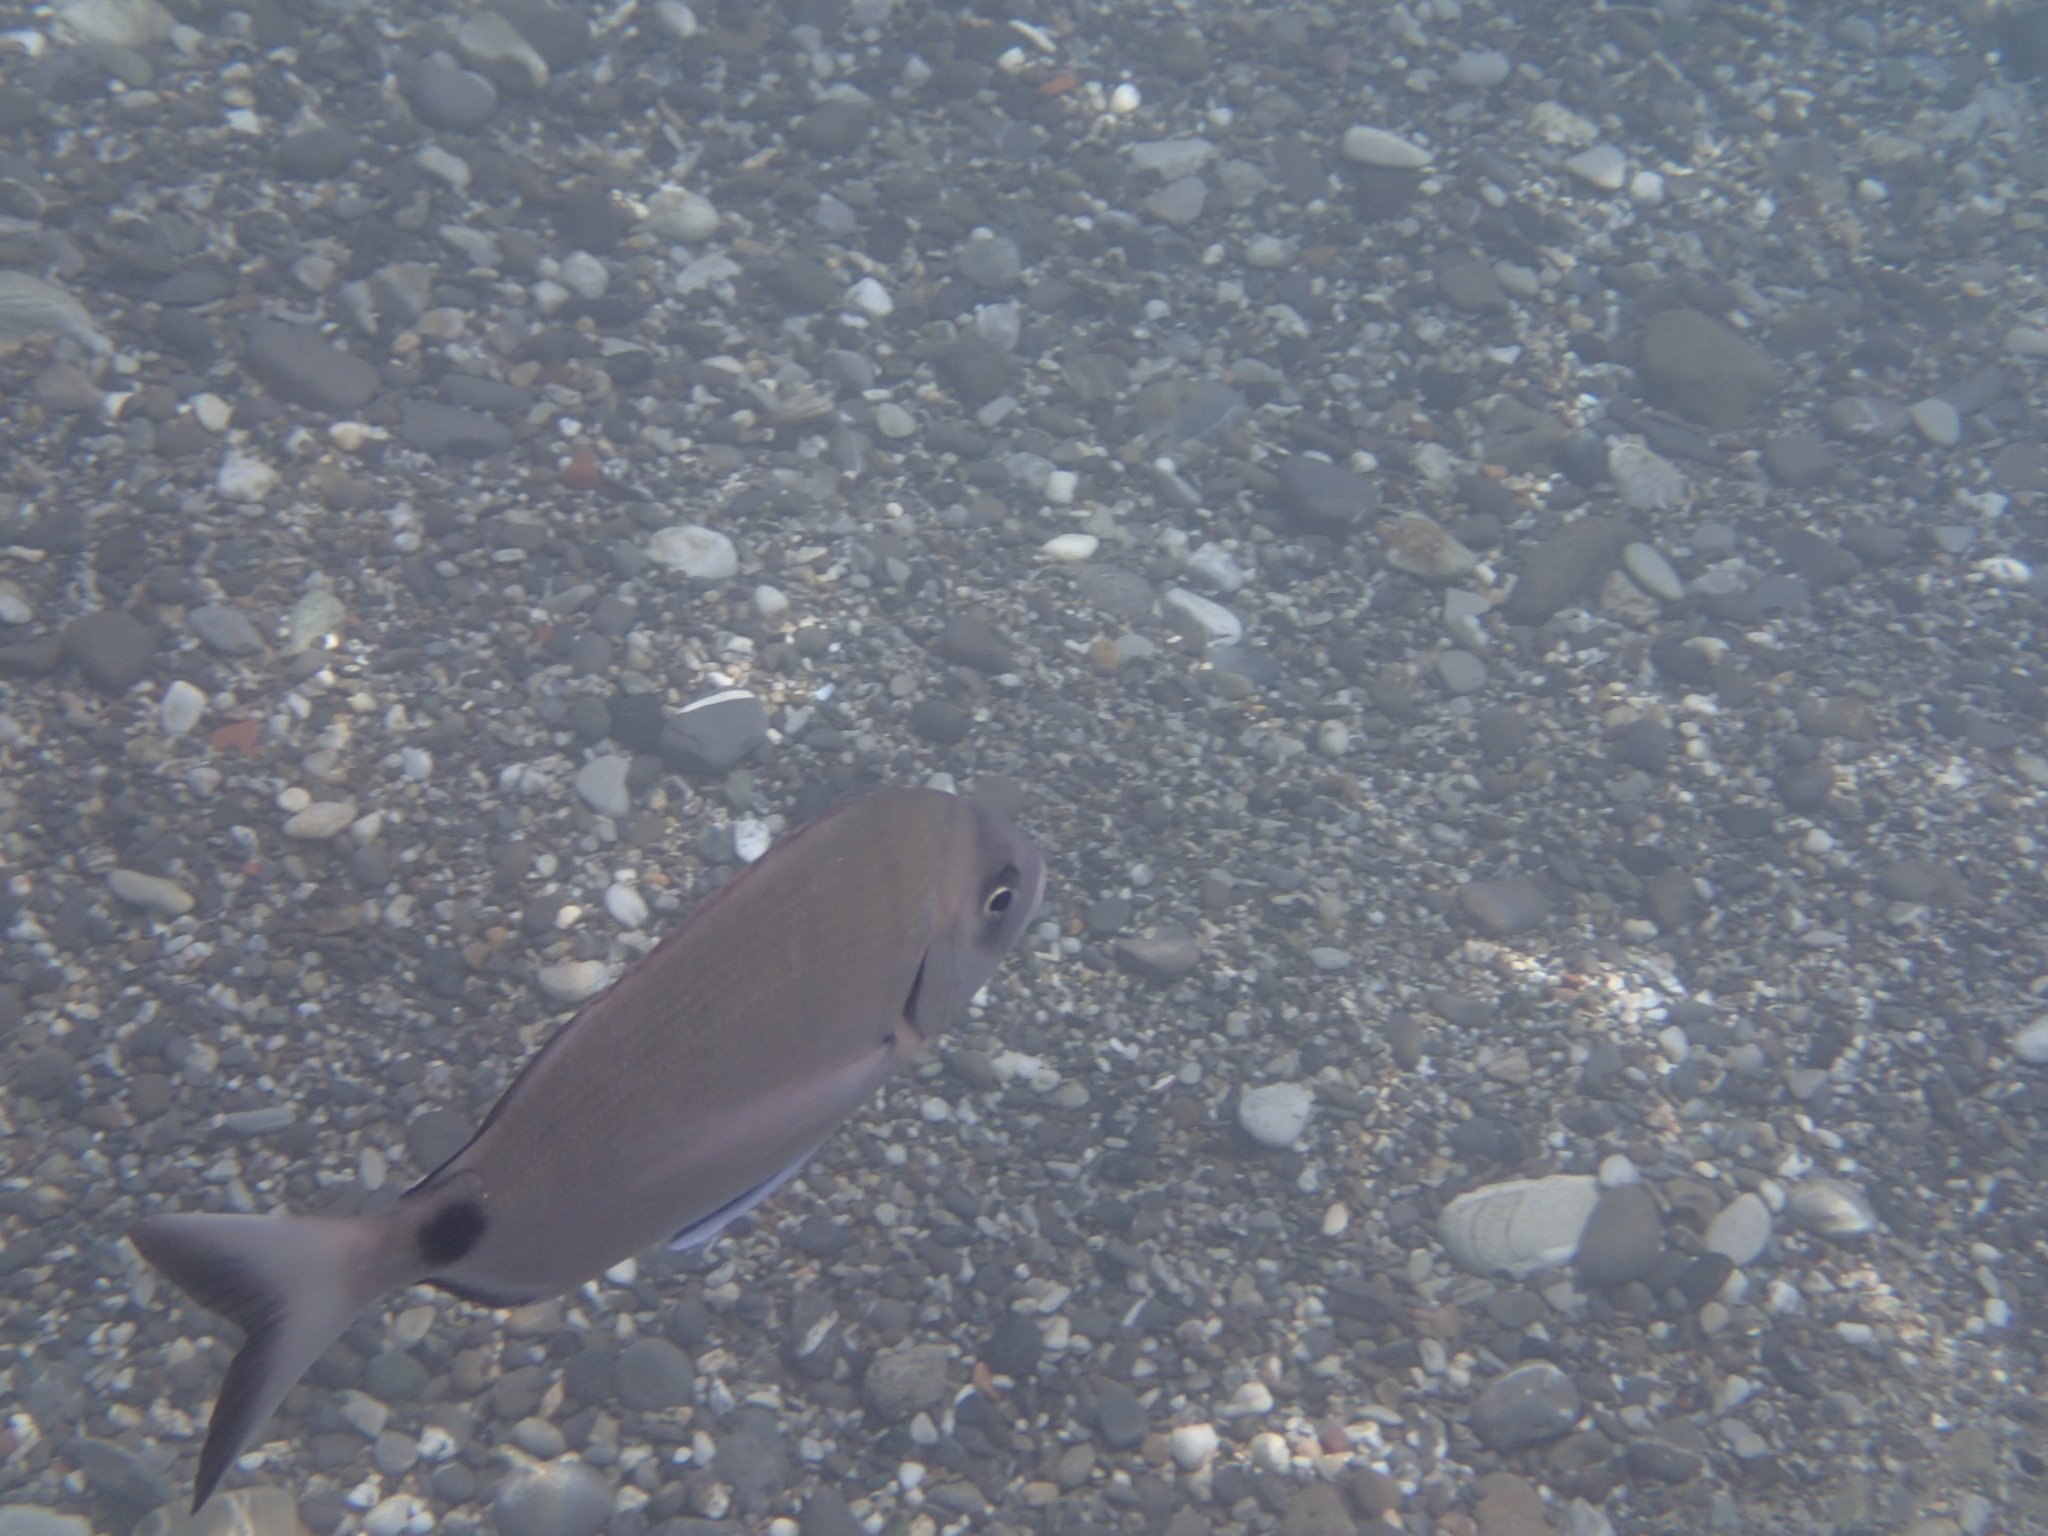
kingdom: Animalia
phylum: Chordata
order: Perciformes
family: Sparidae
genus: Diplodus
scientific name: Diplodus sargus
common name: White seabream
